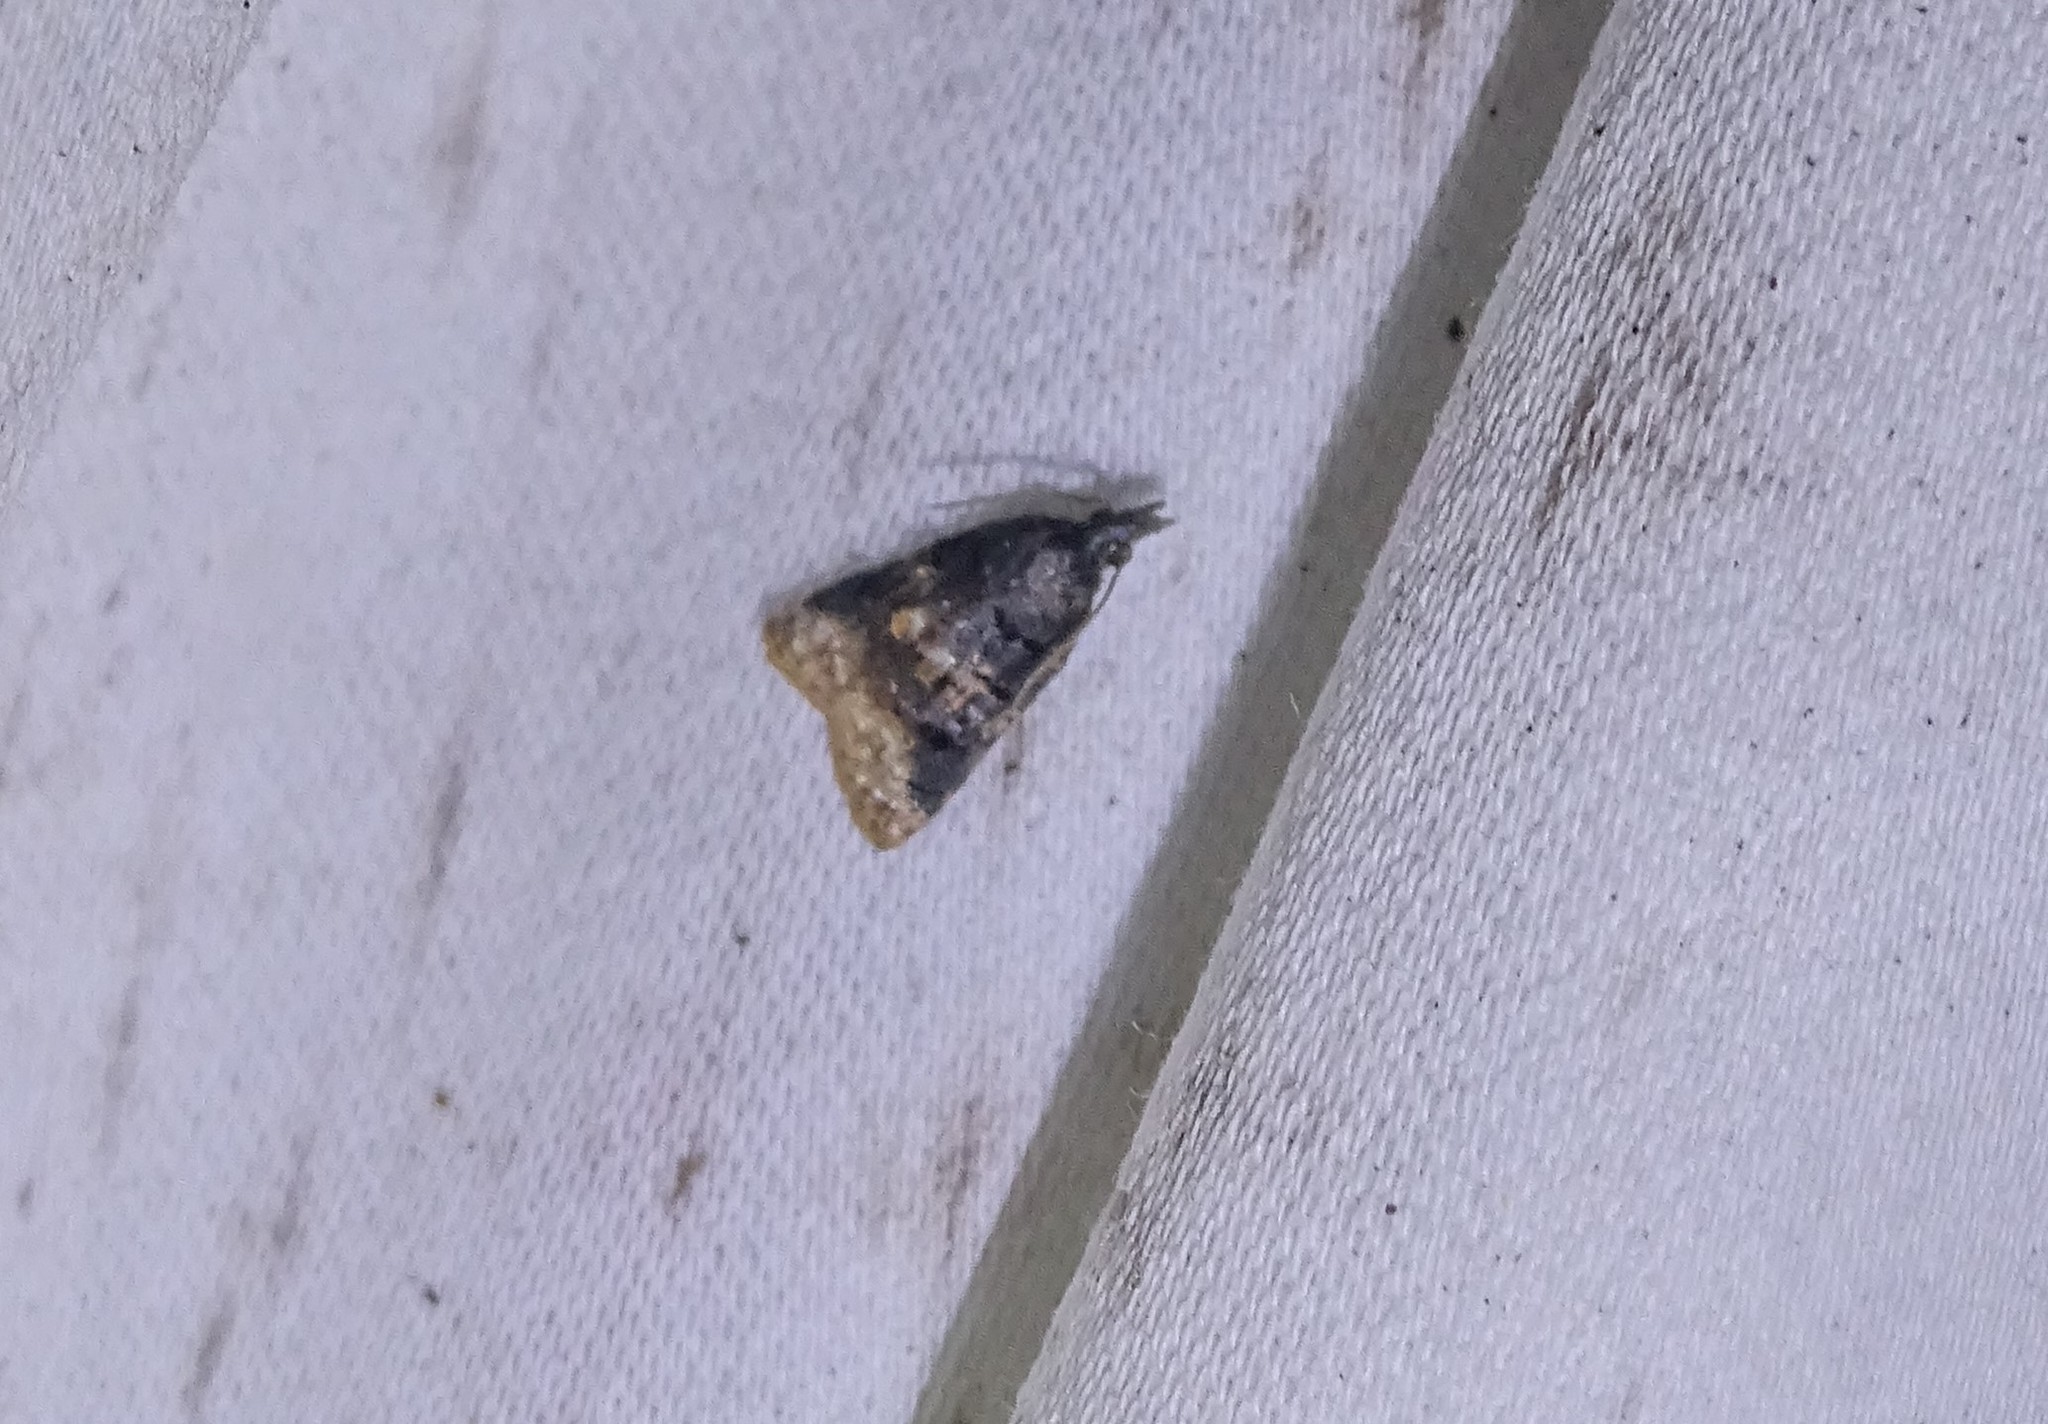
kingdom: Animalia
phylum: Arthropoda
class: Insecta
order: Lepidoptera
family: Tortricidae
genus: Platynota
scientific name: Platynota semiustana
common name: Singed platynota
